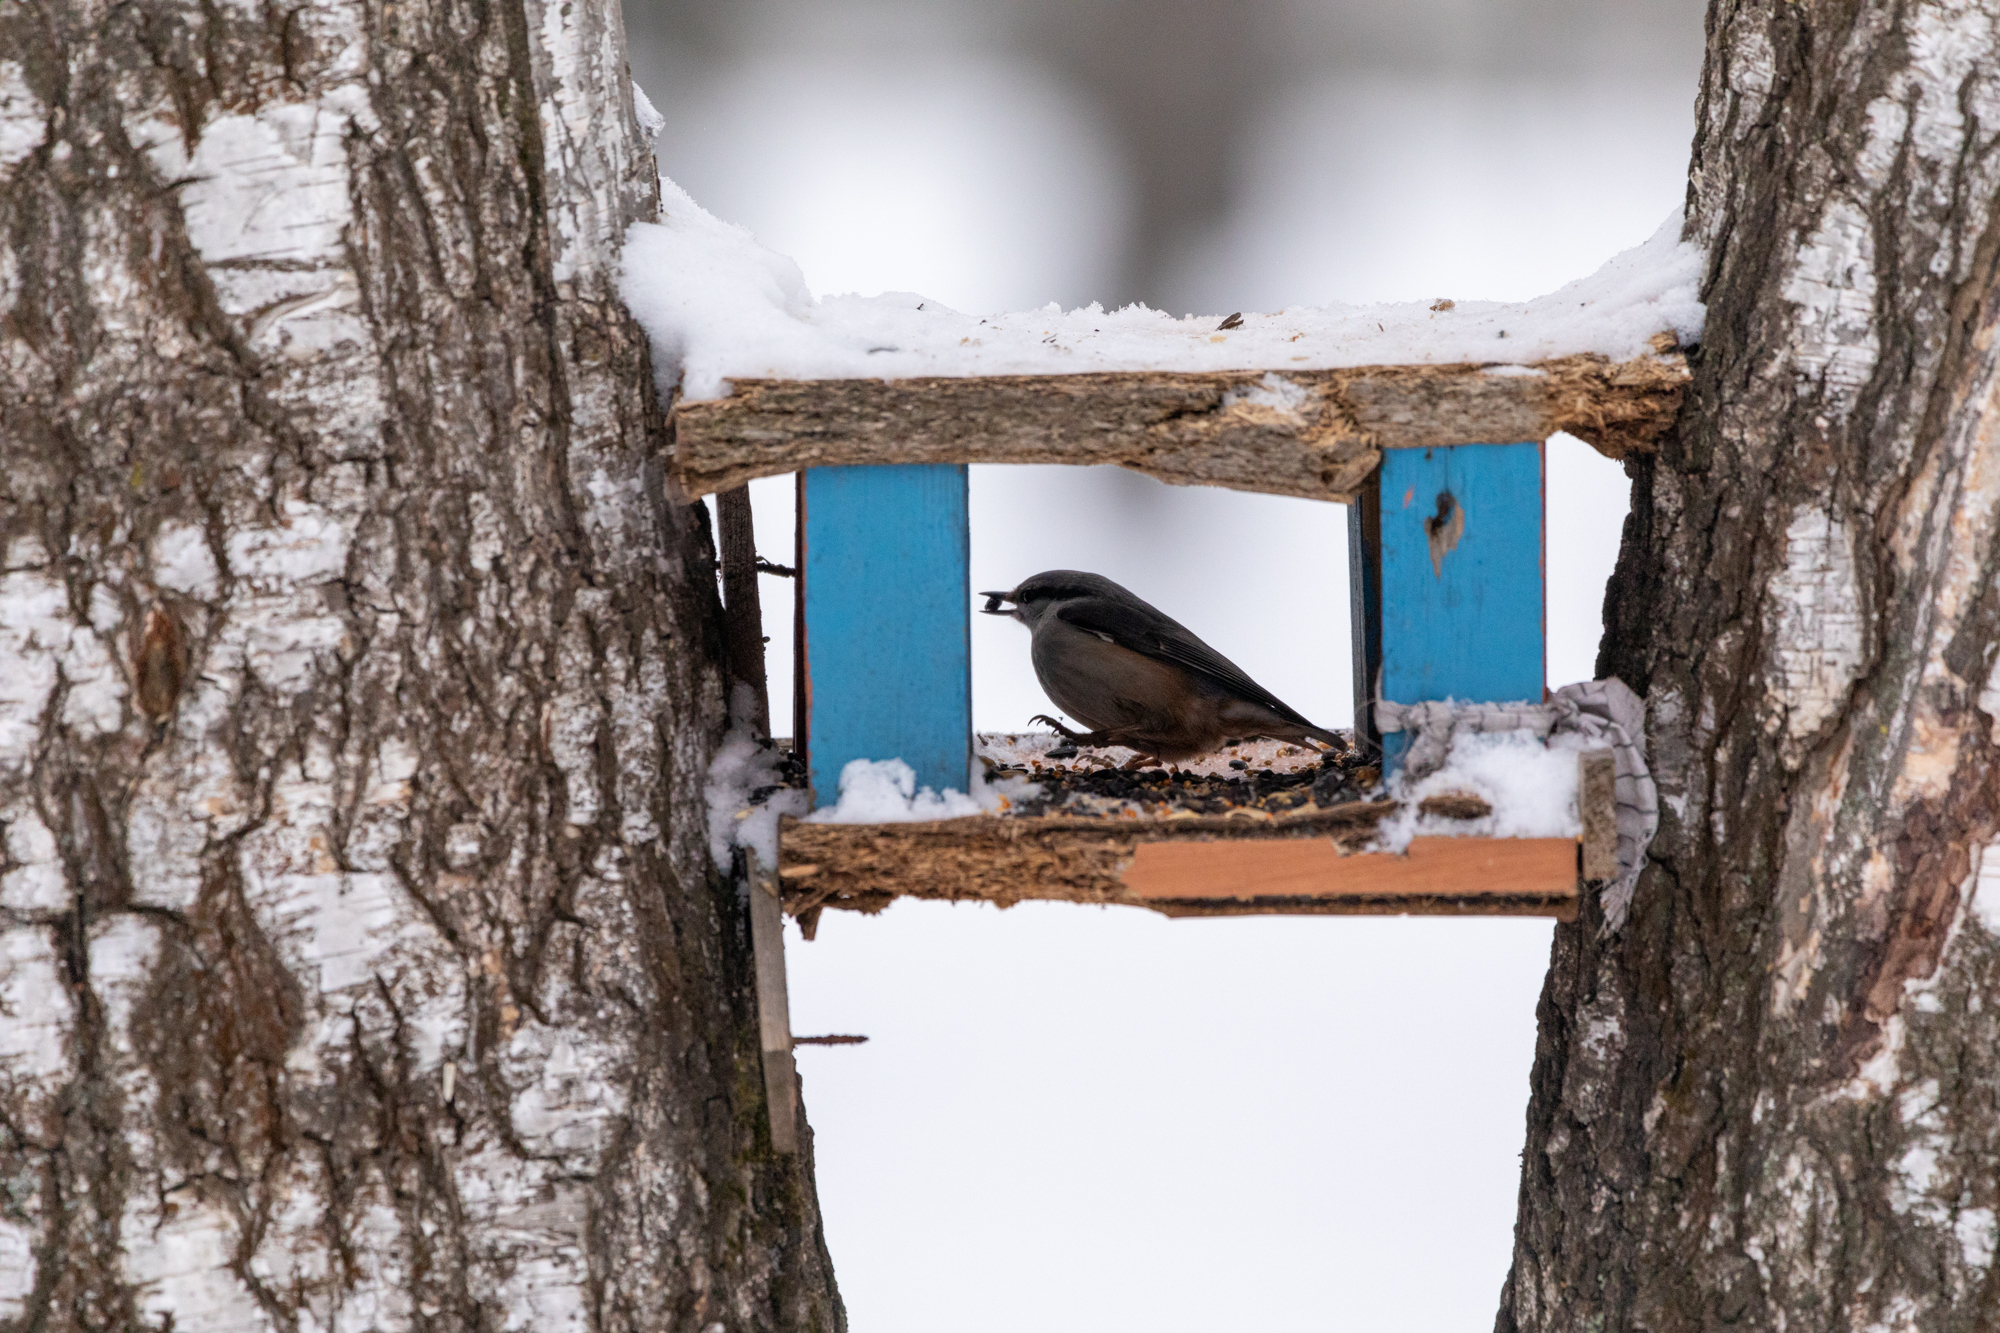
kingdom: Animalia
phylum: Chordata
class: Aves
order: Passeriformes
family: Sittidae
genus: Sitta
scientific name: Sitta europaea
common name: Eurasian nuthatch
